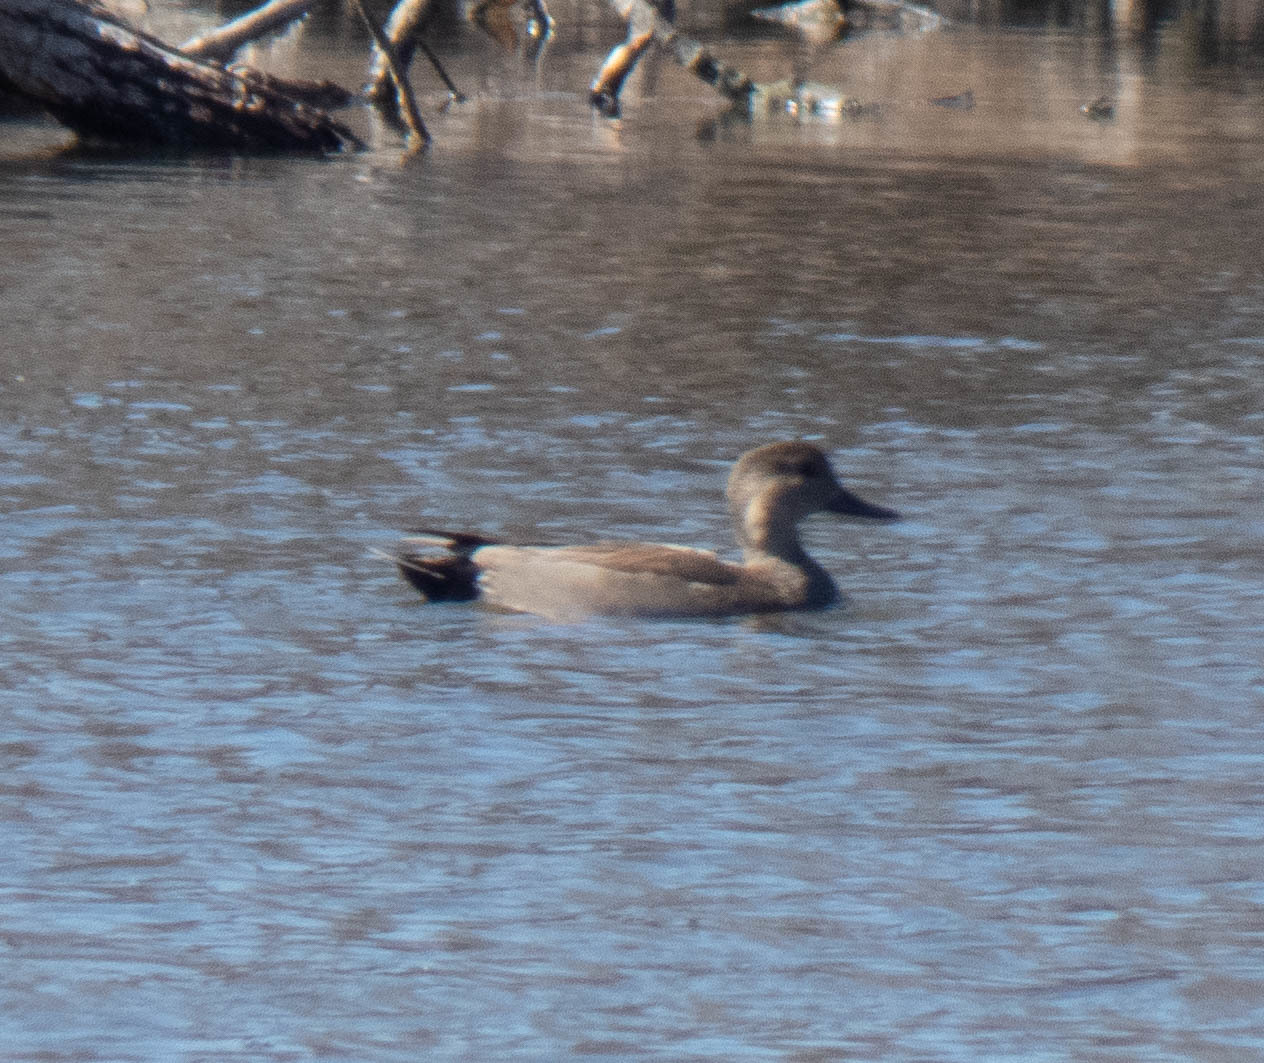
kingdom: Animalia
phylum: Chordata
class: Aves
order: Anseriformes
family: Anatidae
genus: Mareca
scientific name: Mareca strepera
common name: Gadwall
